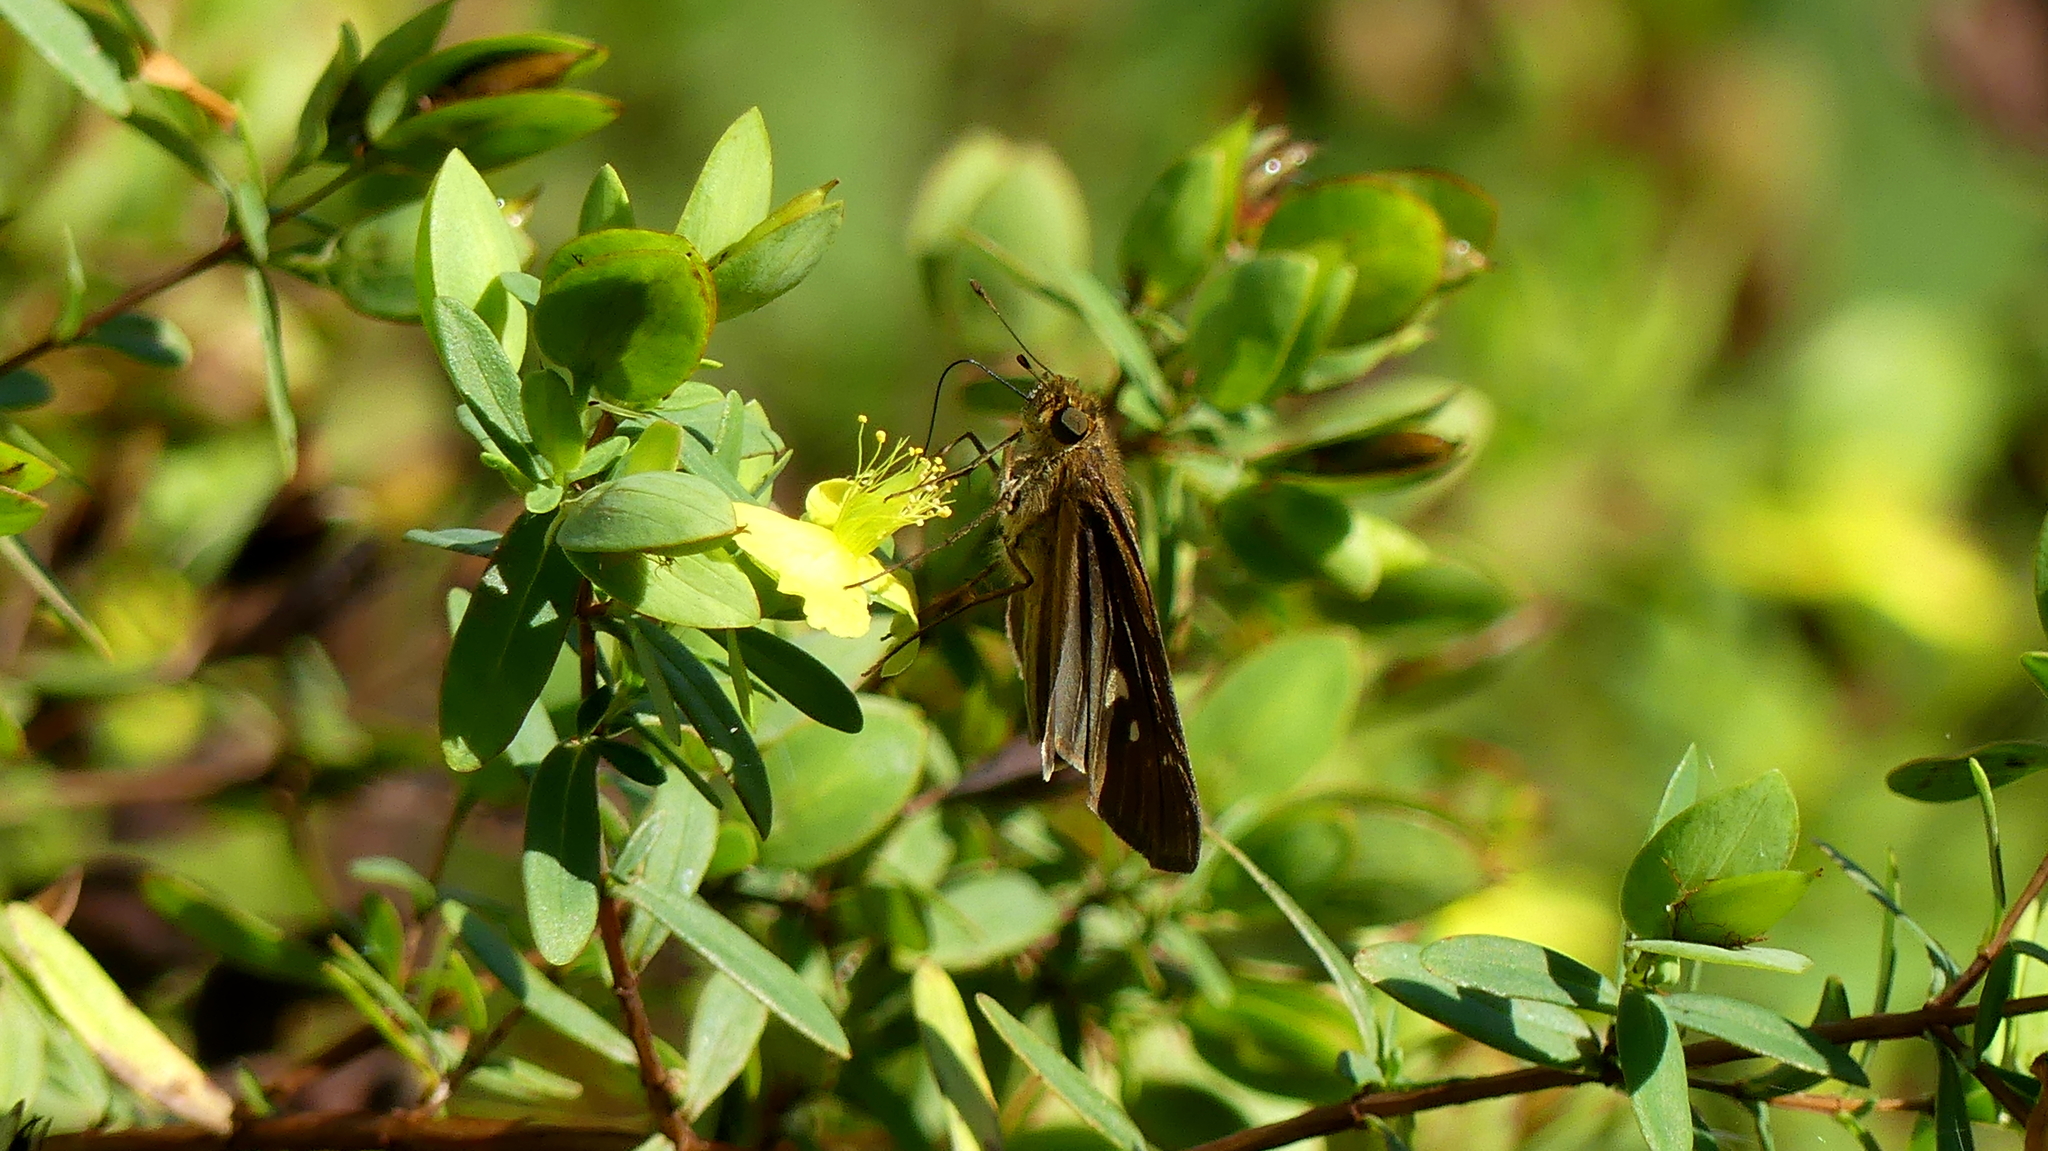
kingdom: Animalia
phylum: Arthropoda
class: Insecta
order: Lepidoptera
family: Hesperiidae
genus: Panoquina
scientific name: Panoquina ocola
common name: Ocola skipper
